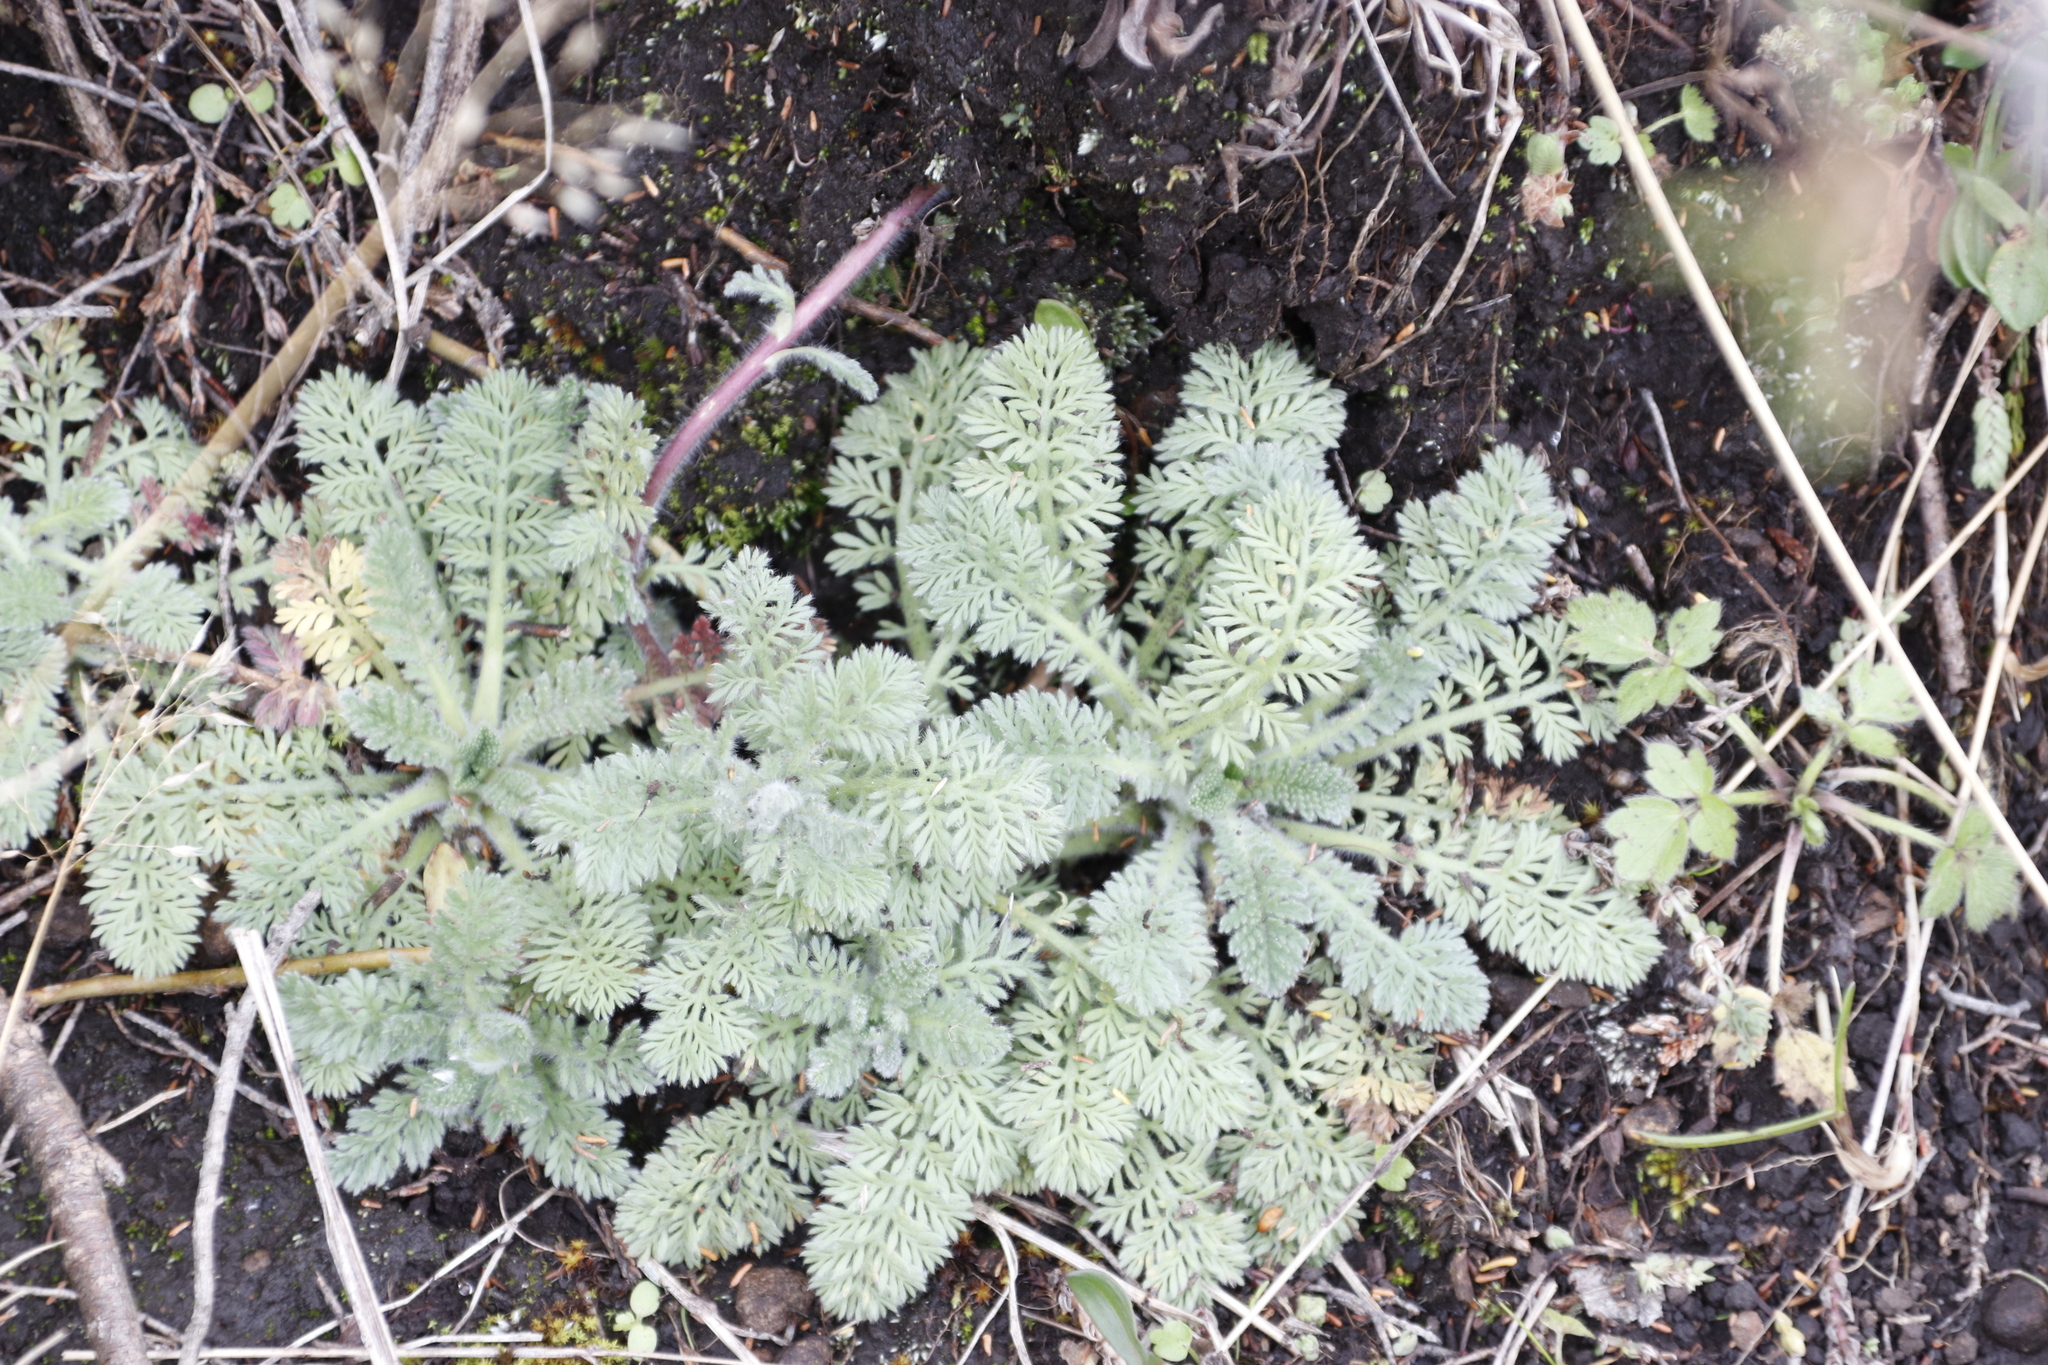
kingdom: Plantae
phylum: Tracheophyta
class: Magnoliopsida
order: Asterales
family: Asteraceae
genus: Cotula
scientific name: Cotula socialis
